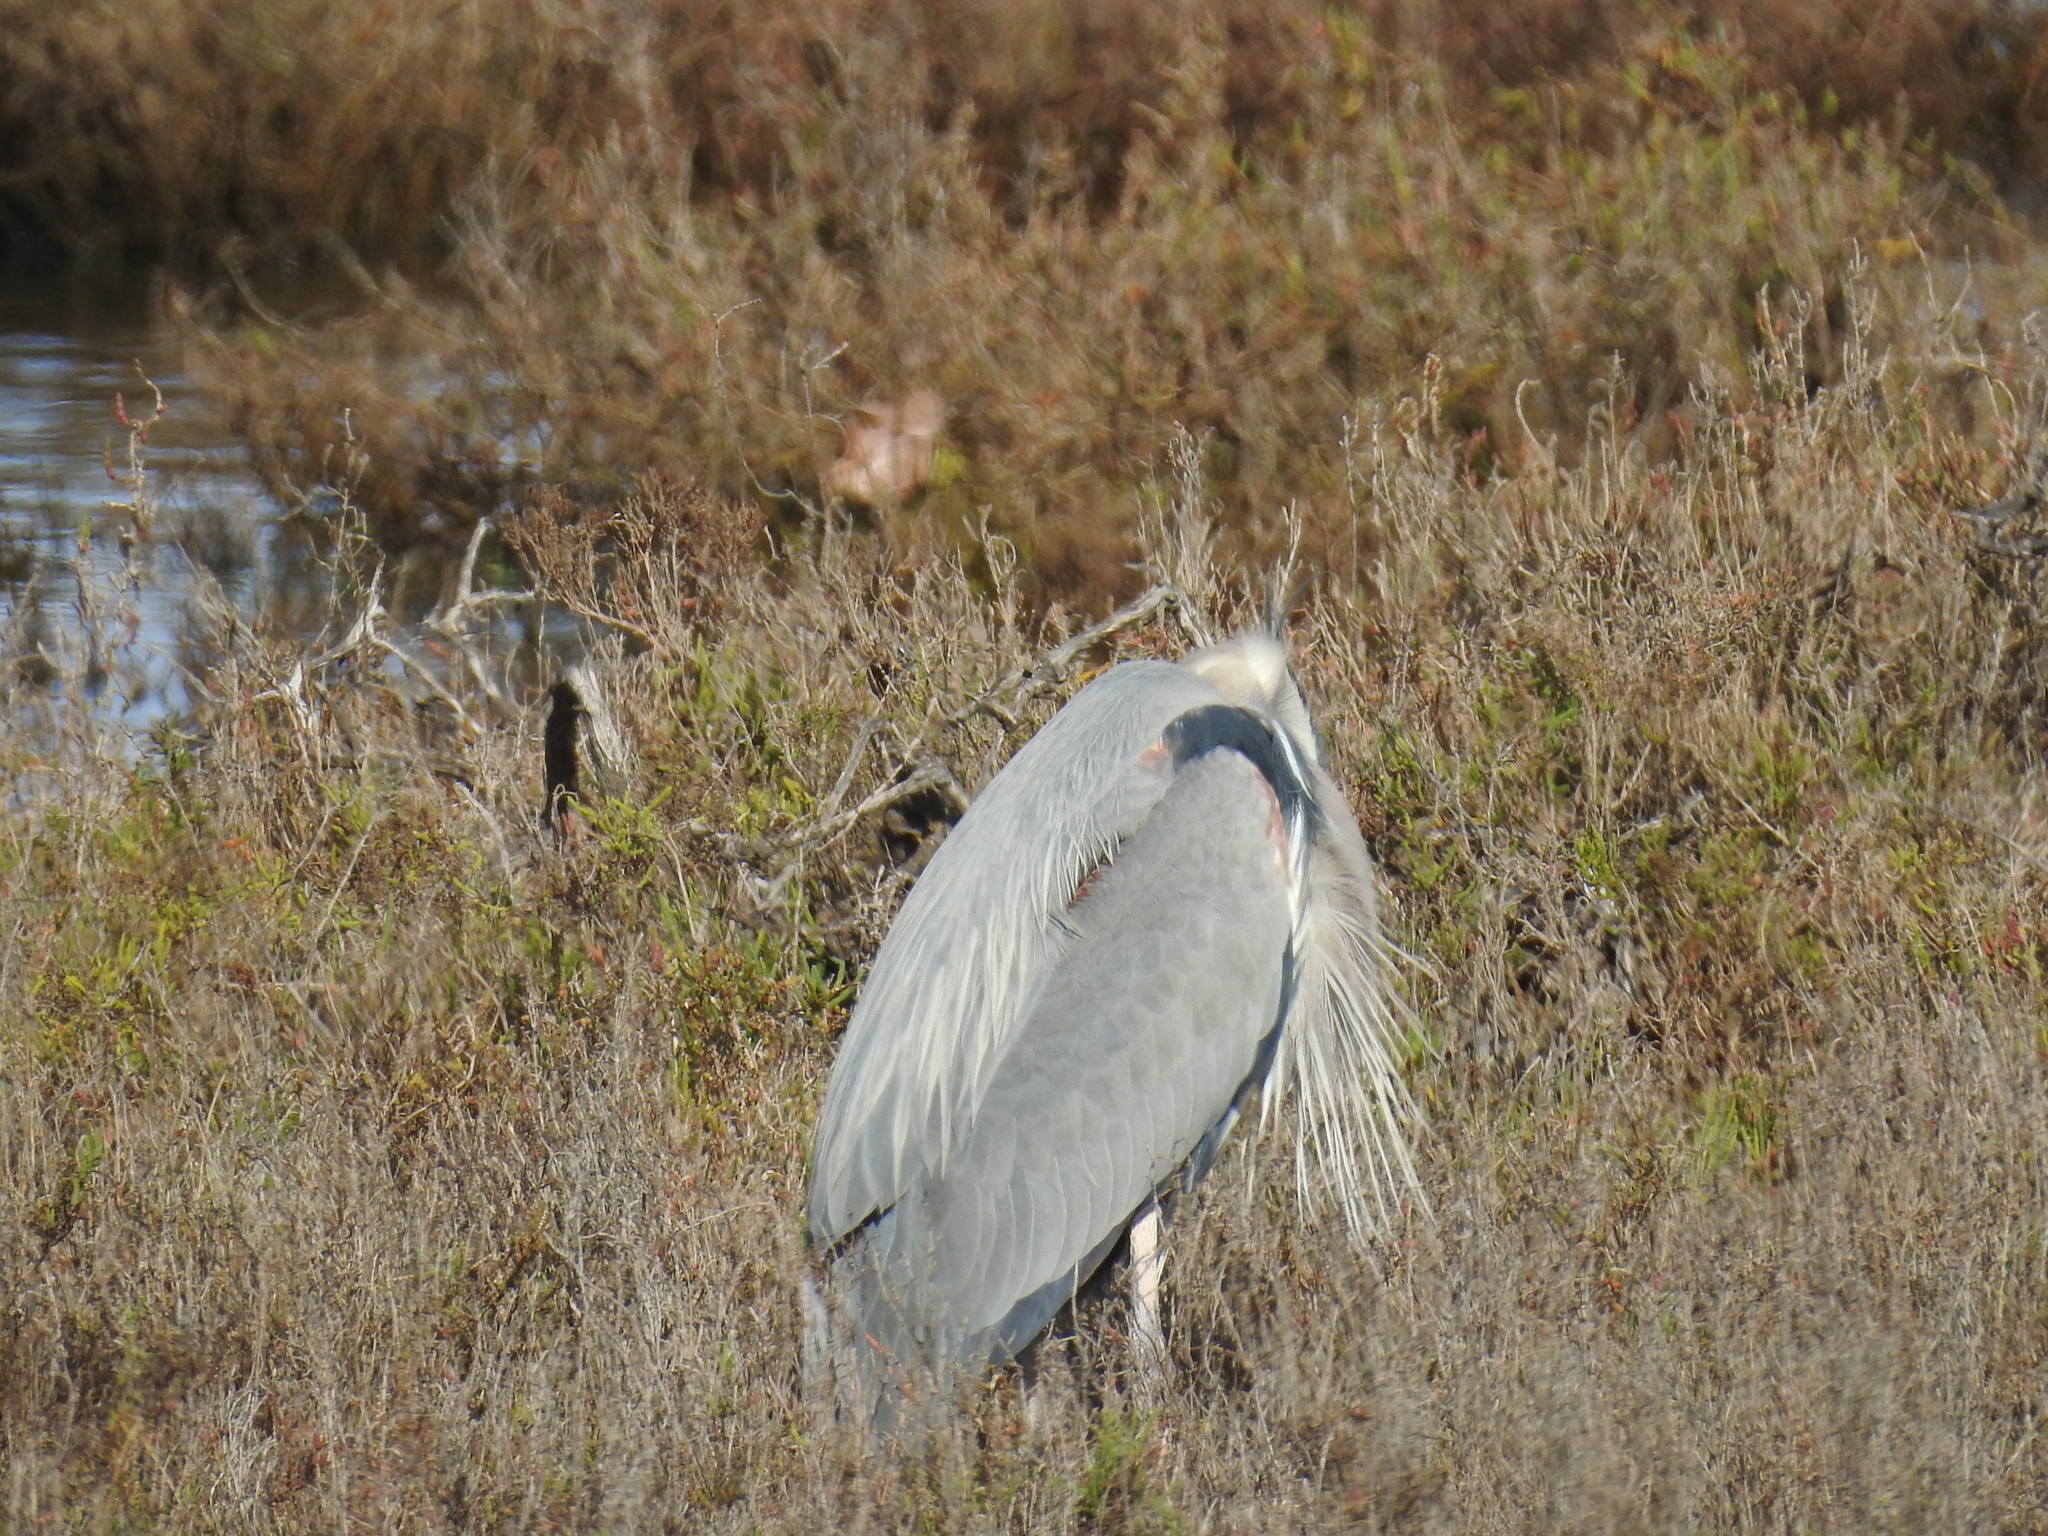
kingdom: Animalia
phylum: Chordata
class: Aves
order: Pelecaniformes
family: Ardeidae
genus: Ardea
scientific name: Ardea herodias
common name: Great blue heron
